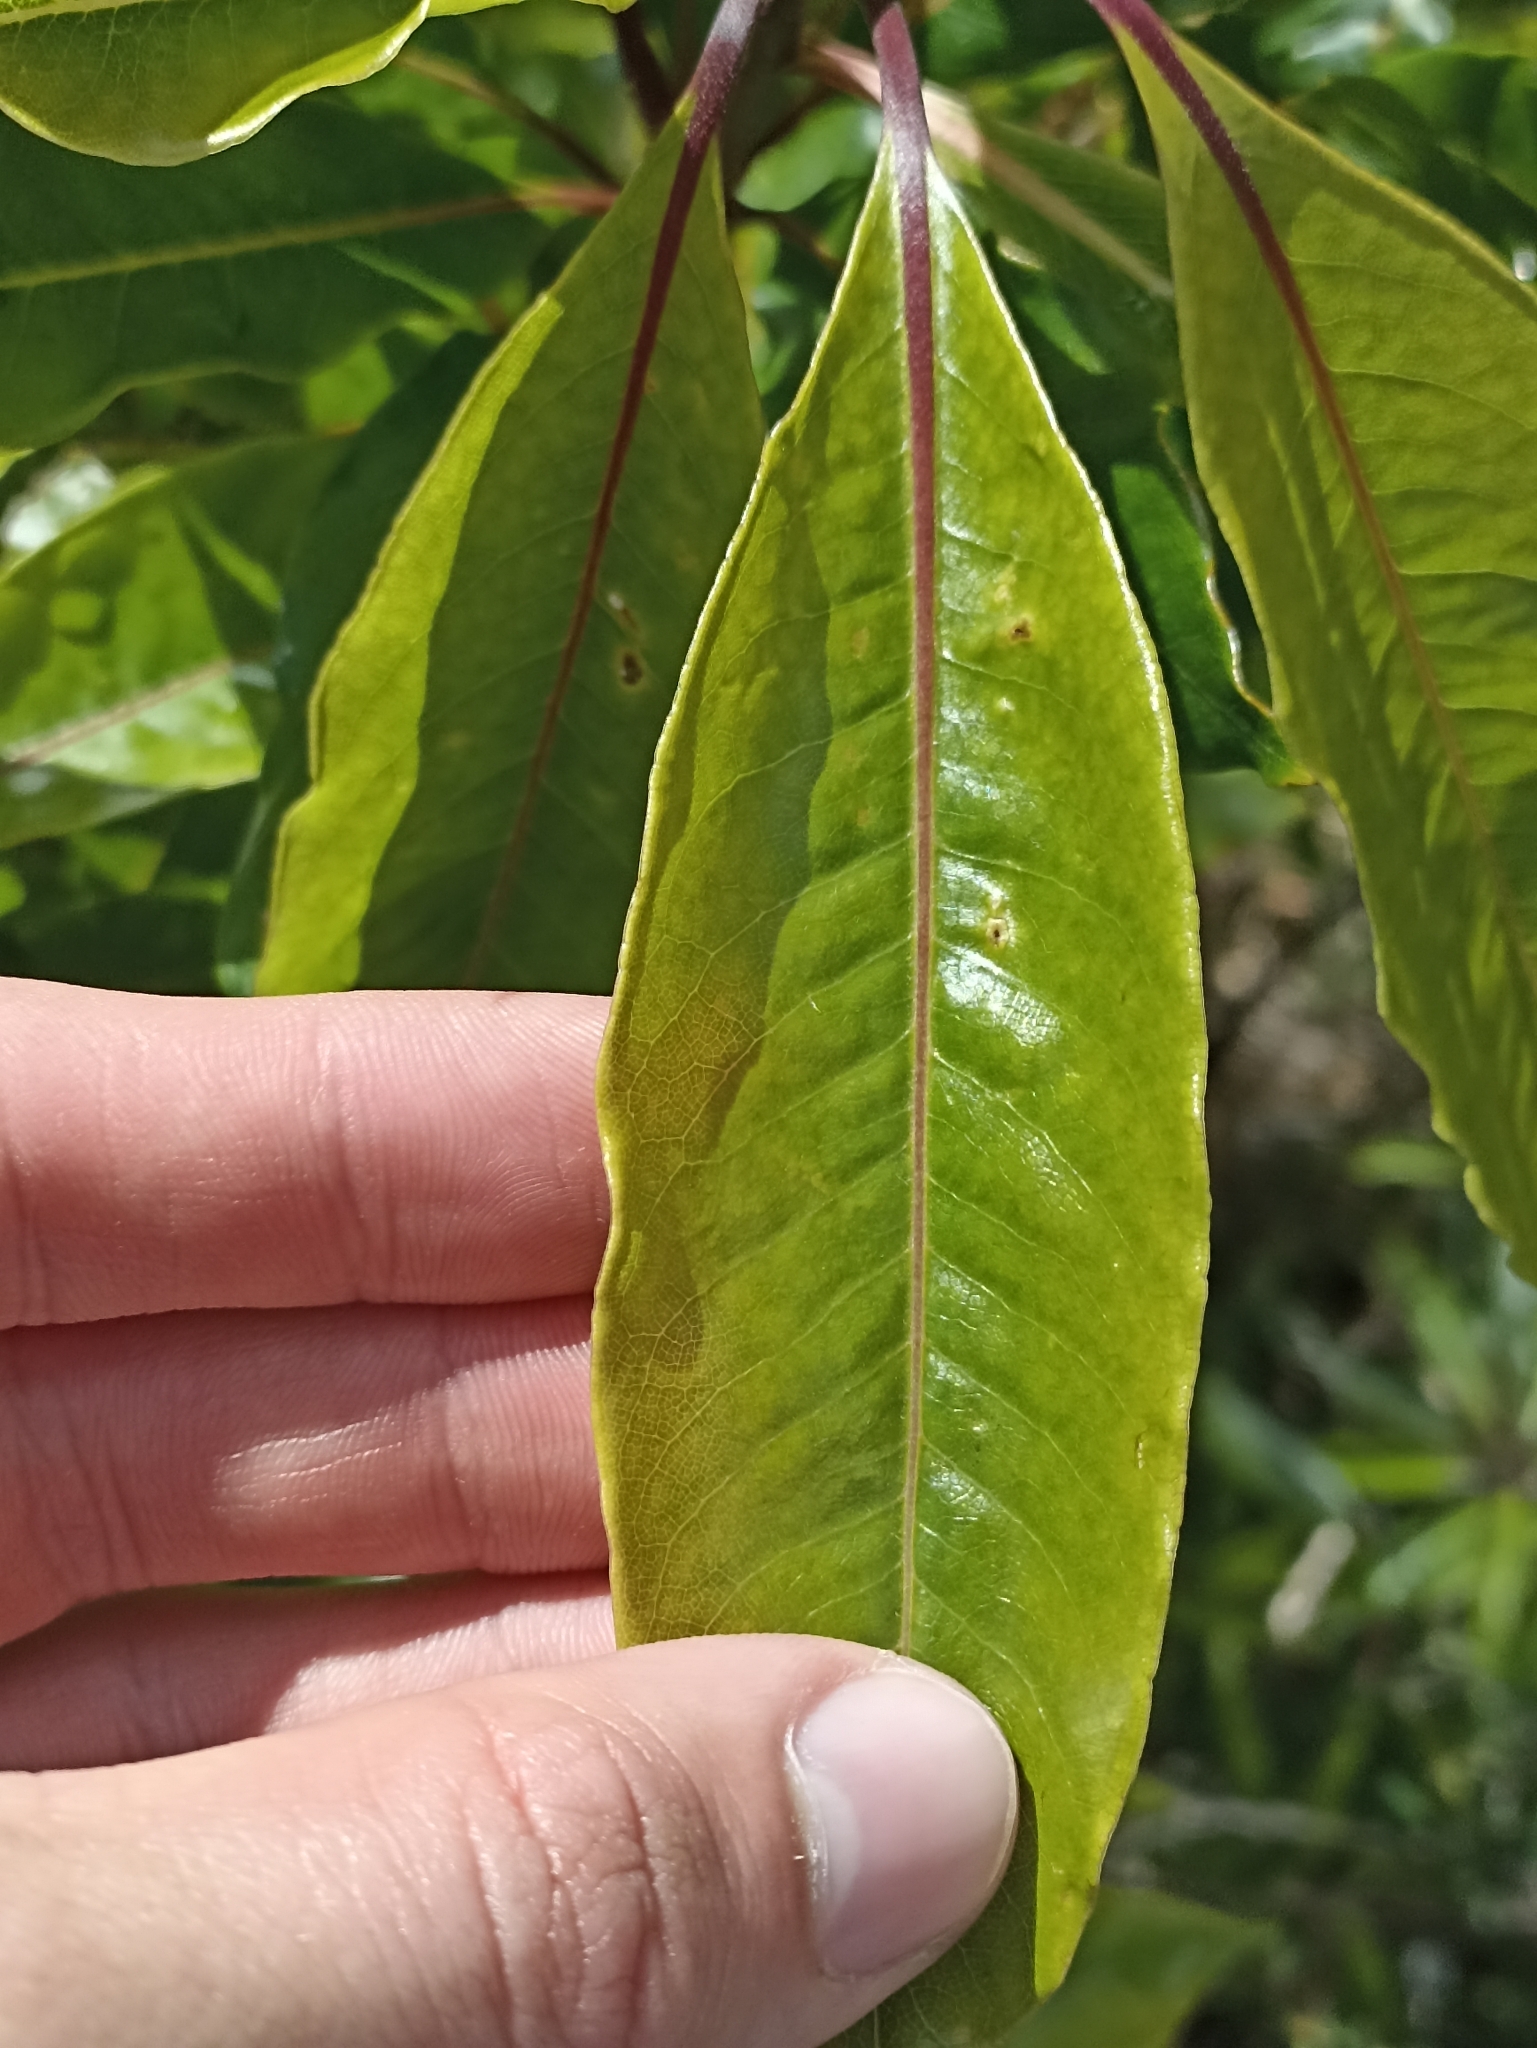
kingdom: Plantae
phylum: Tracheophyta
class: Magnoliopsida
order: Apiales
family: Pittosporaceae
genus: Pittosporum
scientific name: Pittosporum undulatum
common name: Australian cheesewood
